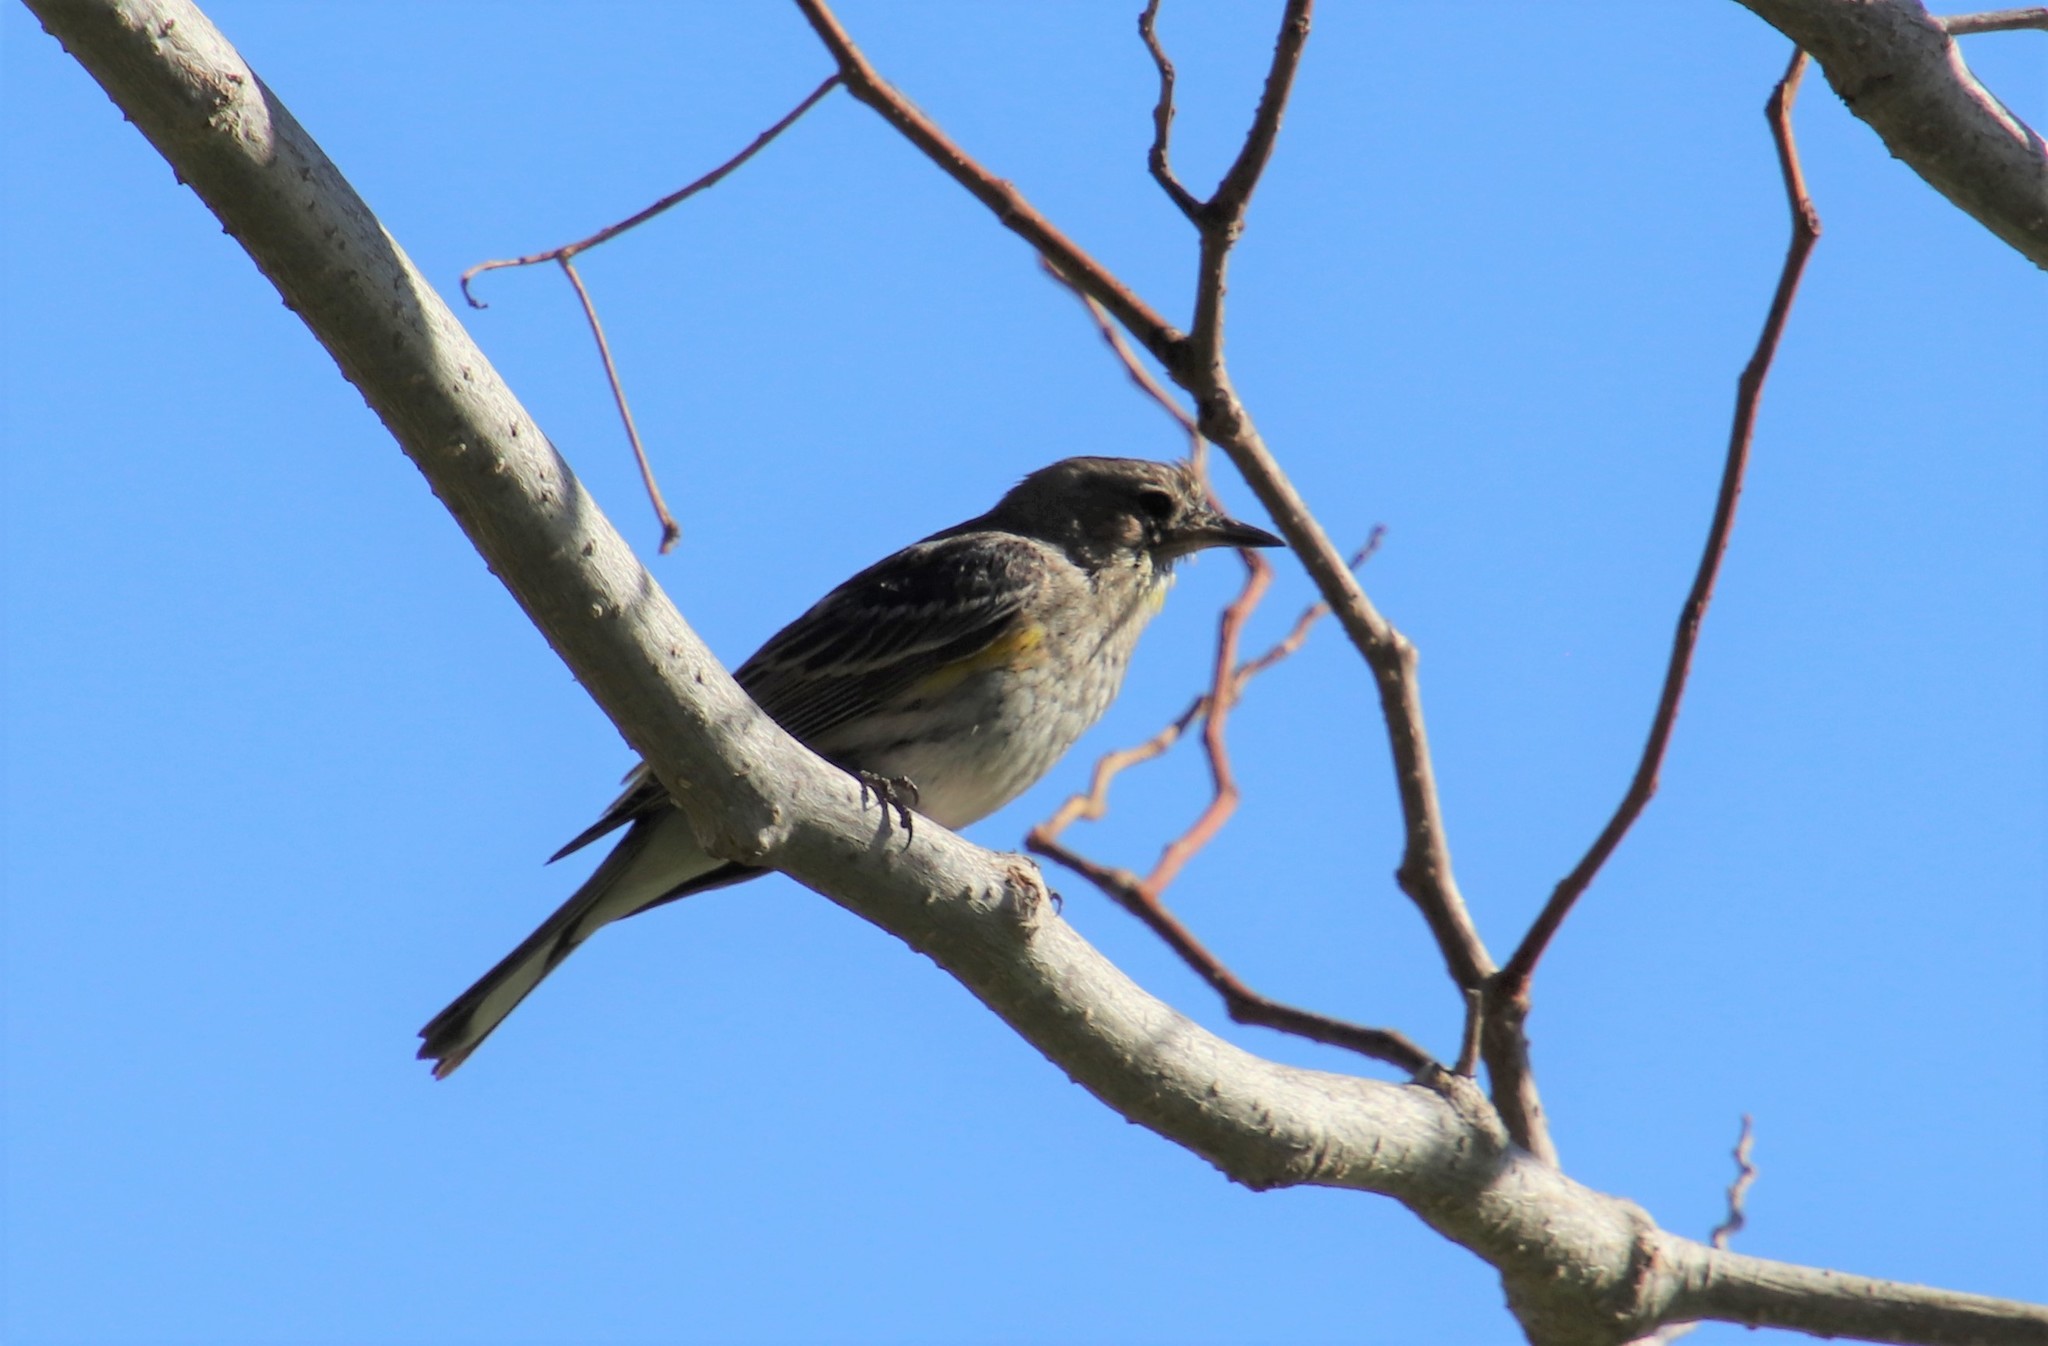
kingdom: Animalia
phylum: Chordata
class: Aves
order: Passeriformes
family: Parulidae
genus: Setophaga
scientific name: Setophaga coronata
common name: Myrtle warbler
